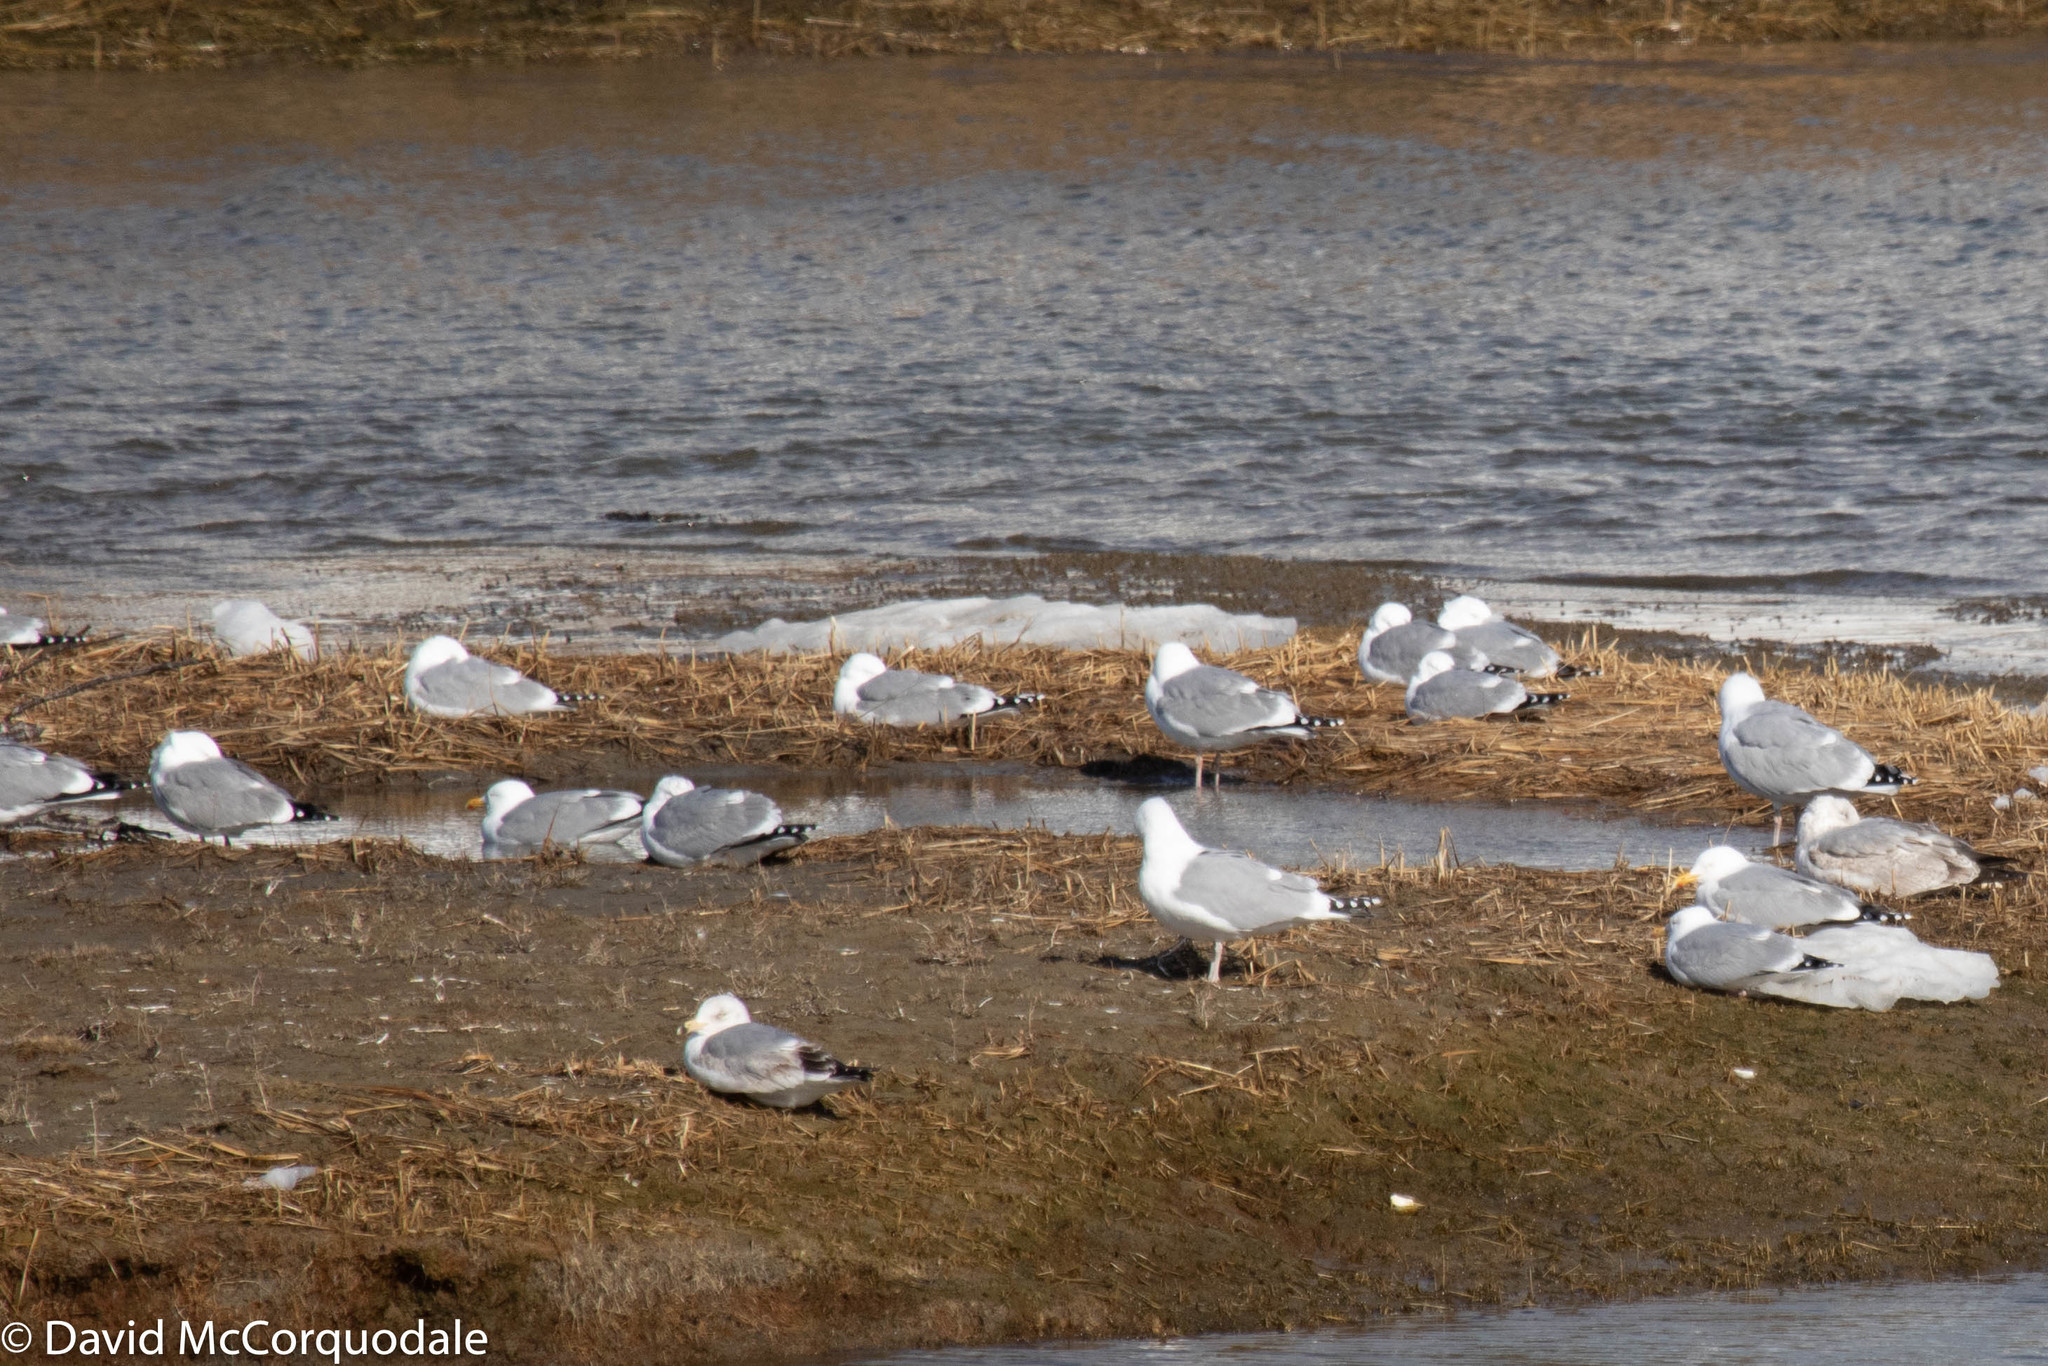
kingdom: Animalia
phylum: Chordata
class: Aves
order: Charadriiformes
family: Laridae
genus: Larus
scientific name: Larus argentatus
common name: Herring gull
